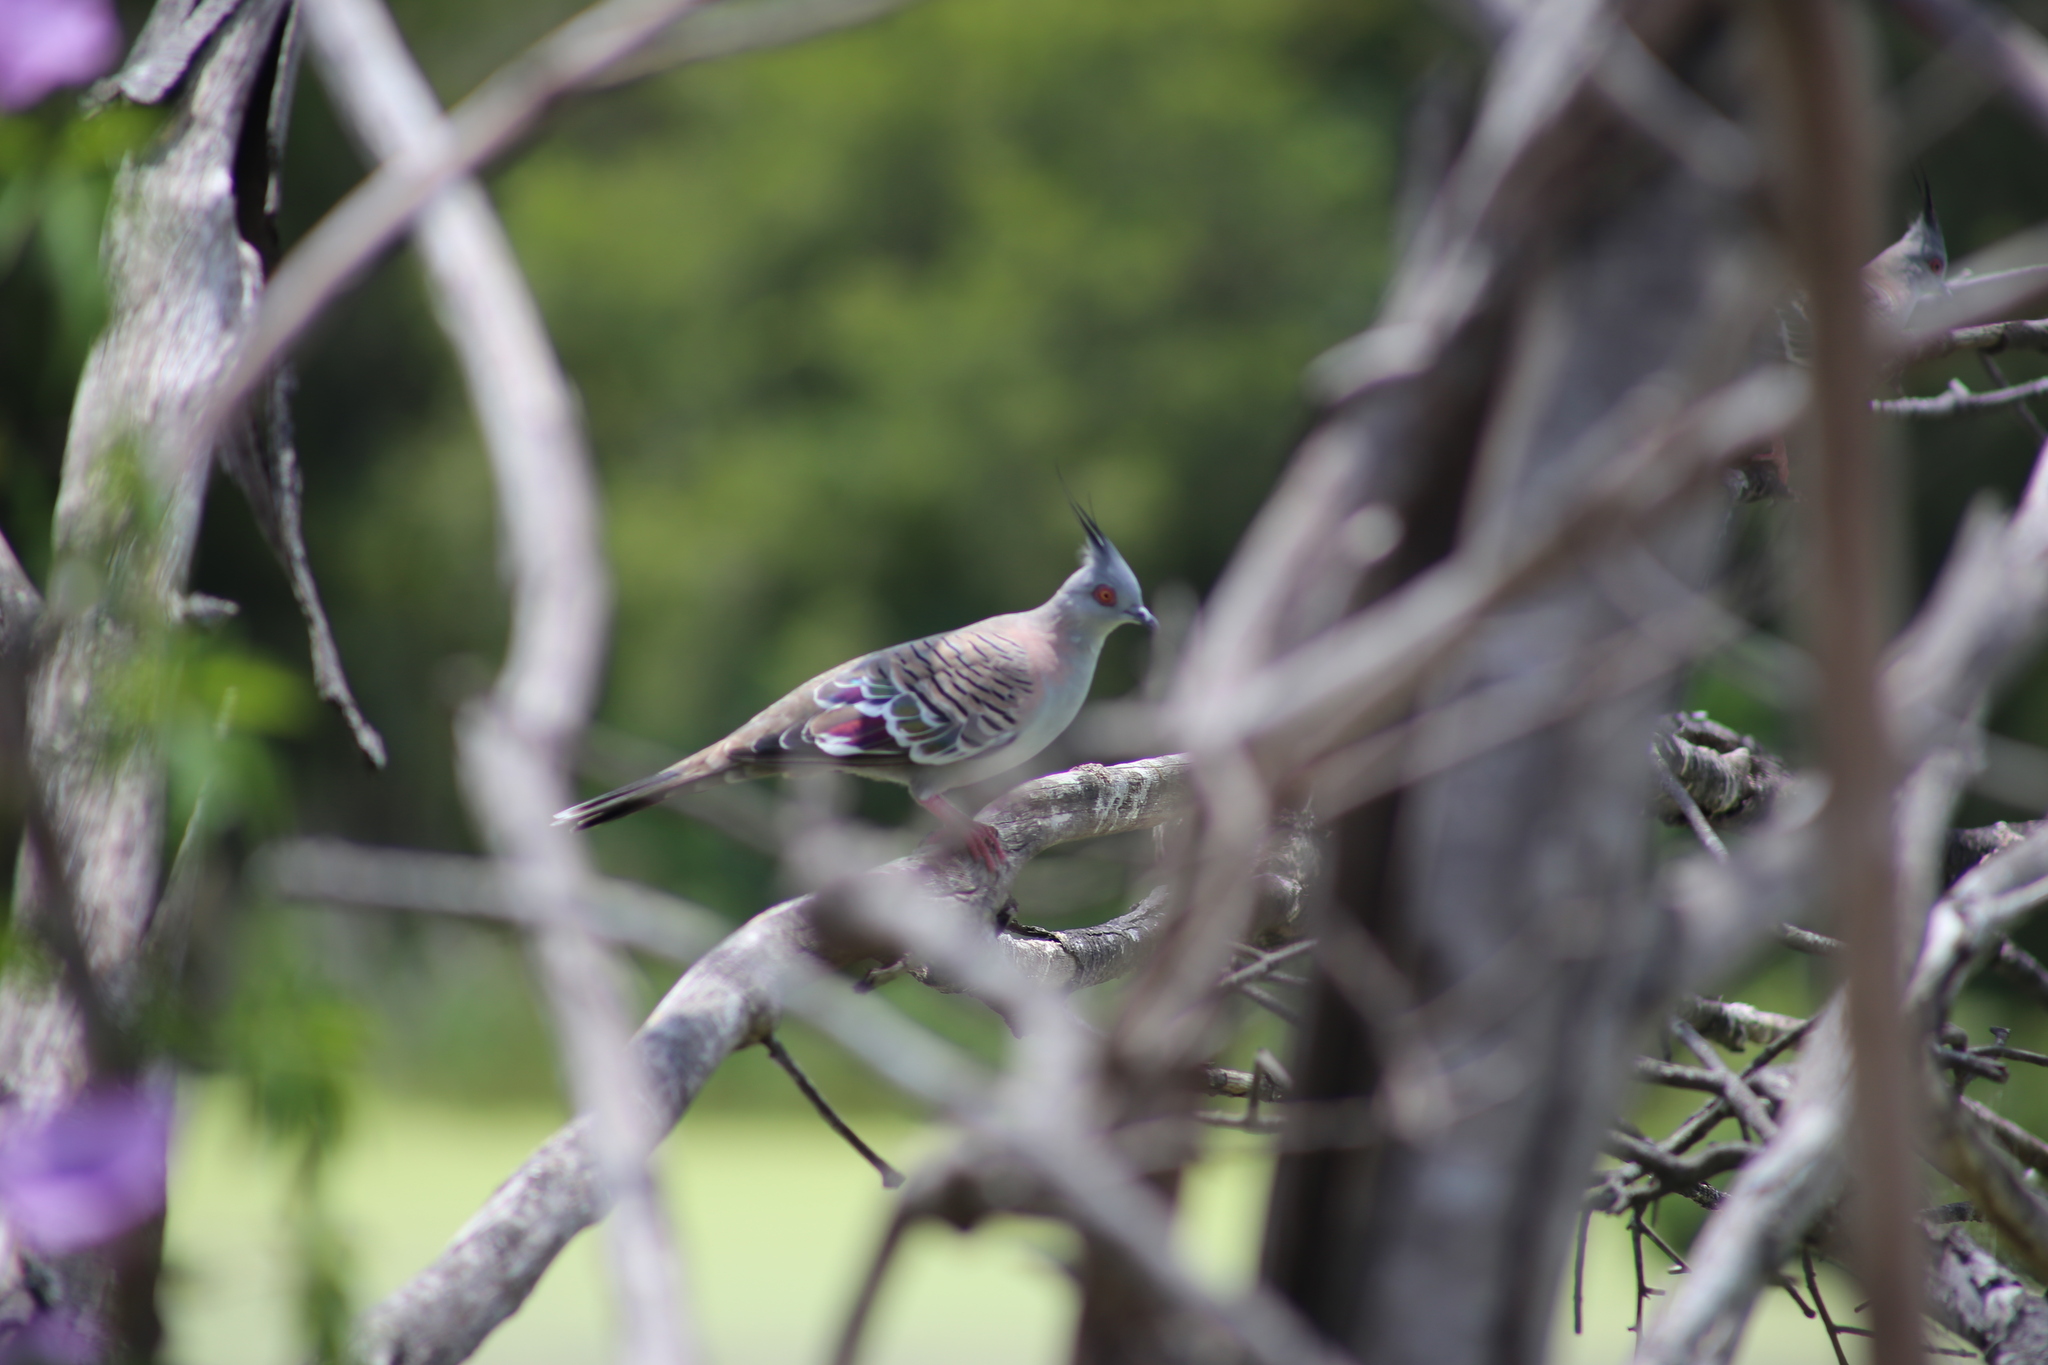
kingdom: Animalia
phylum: Chordata
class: Aves
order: Columbiformes
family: Columbidae
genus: Ocyphaps
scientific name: Ocyphaps lophotes
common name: Crested pigeon
